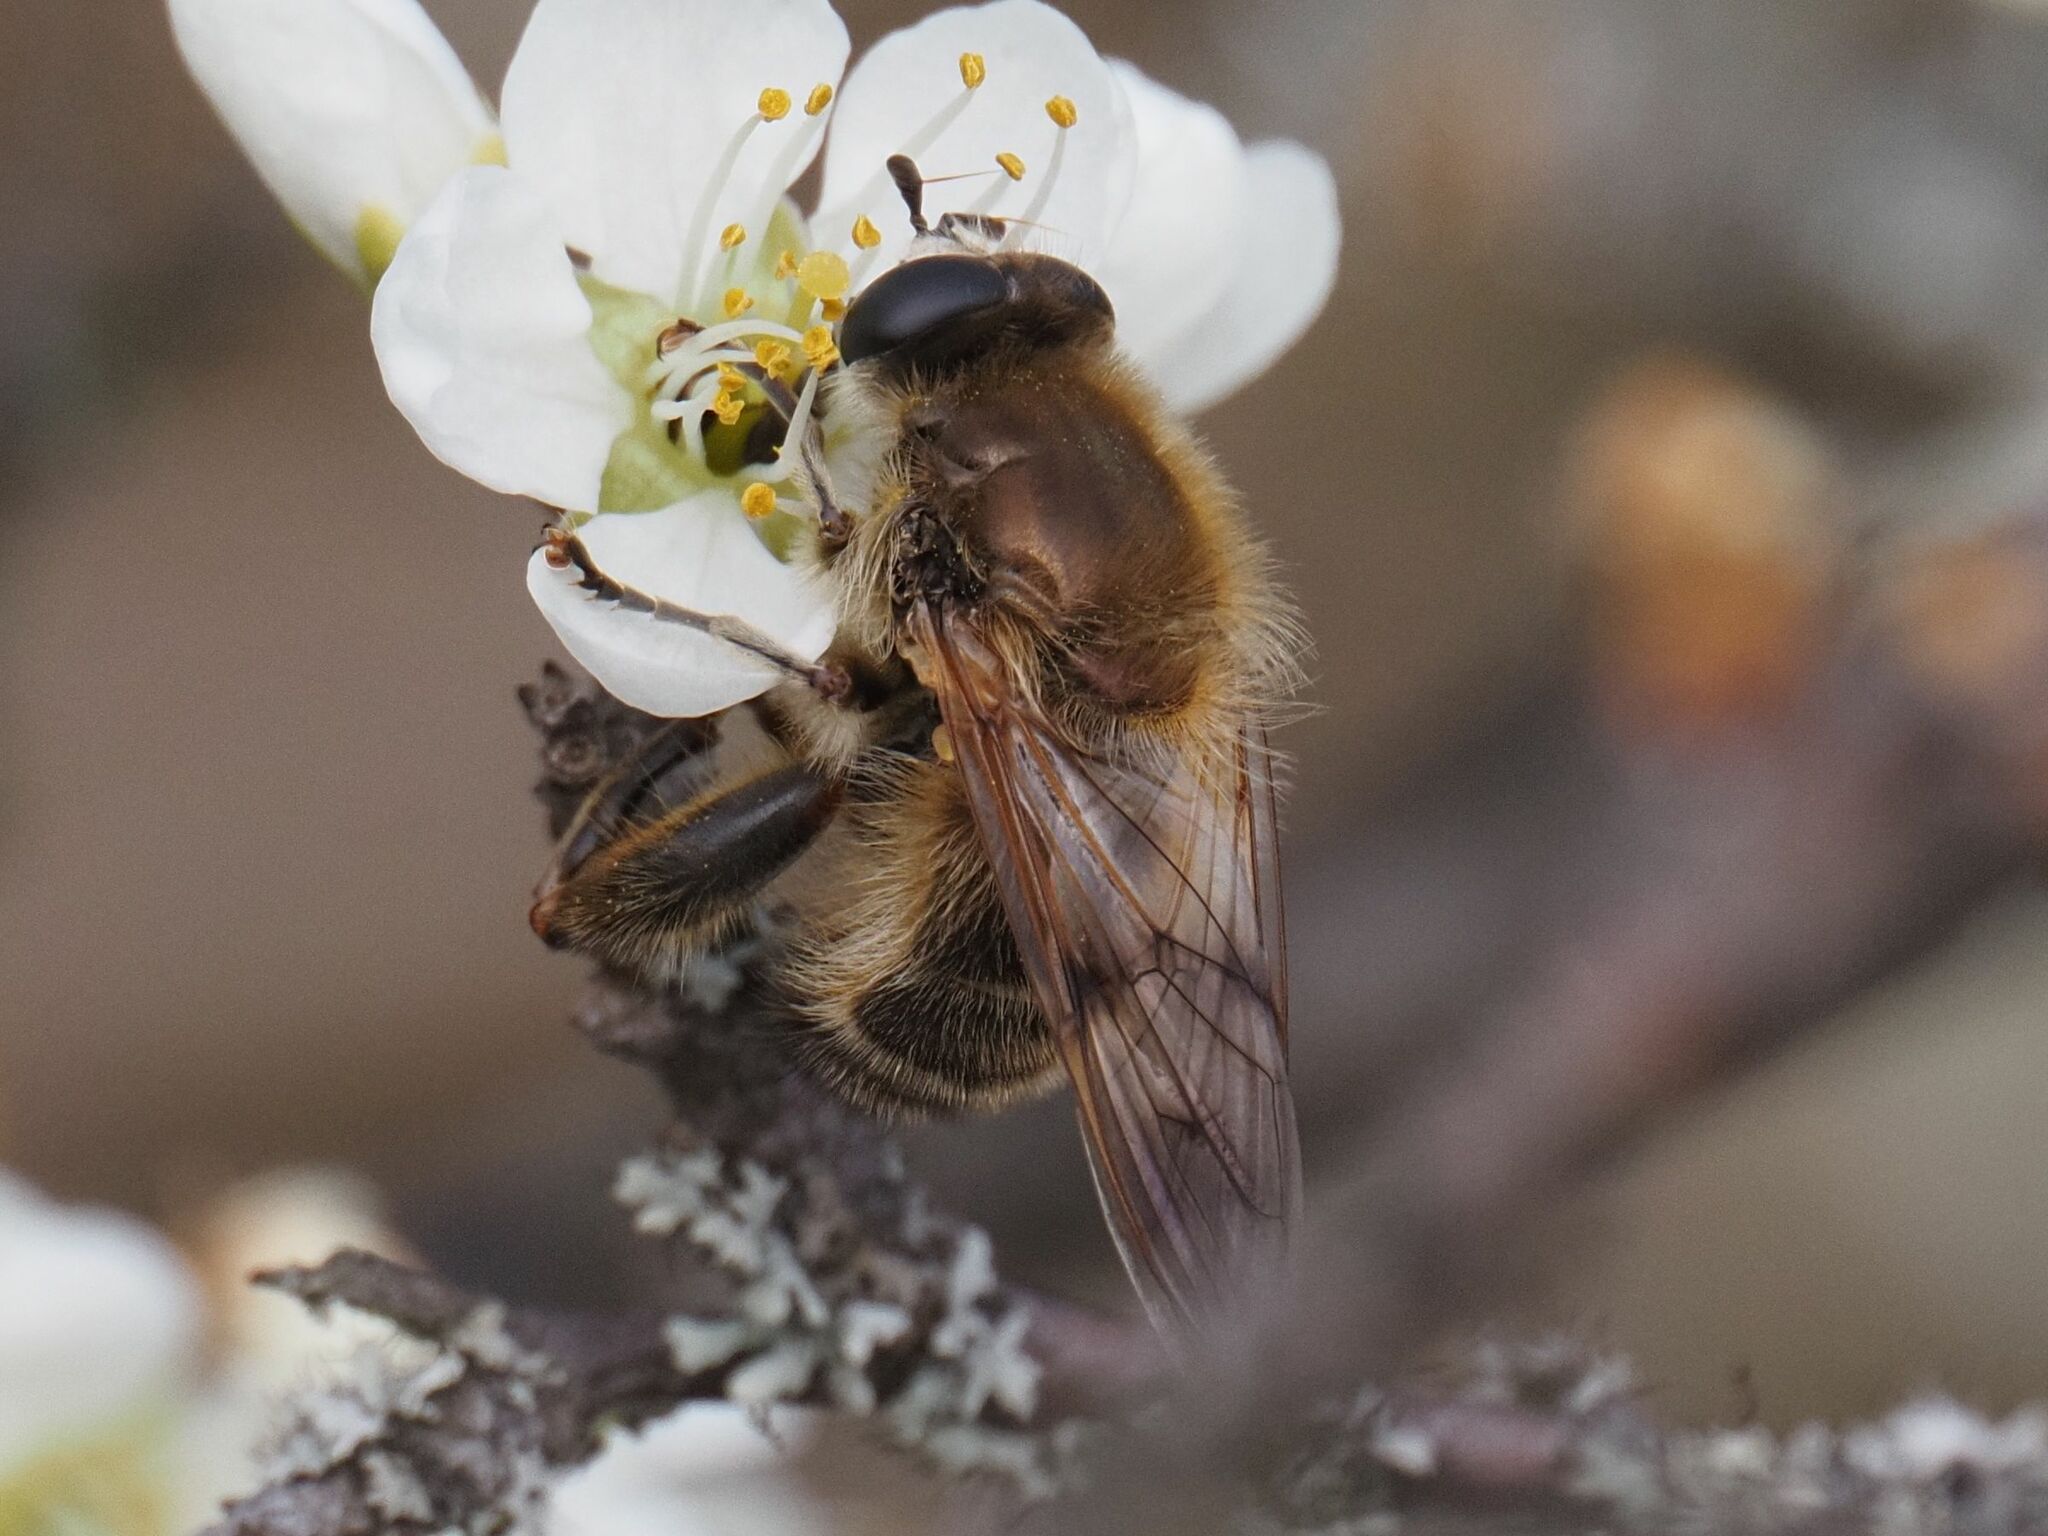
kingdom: Animalia
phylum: Arthropoda
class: Insecta
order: Diptera
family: Syrphidae
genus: Brachypalpus
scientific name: Brachypalpus valgus
